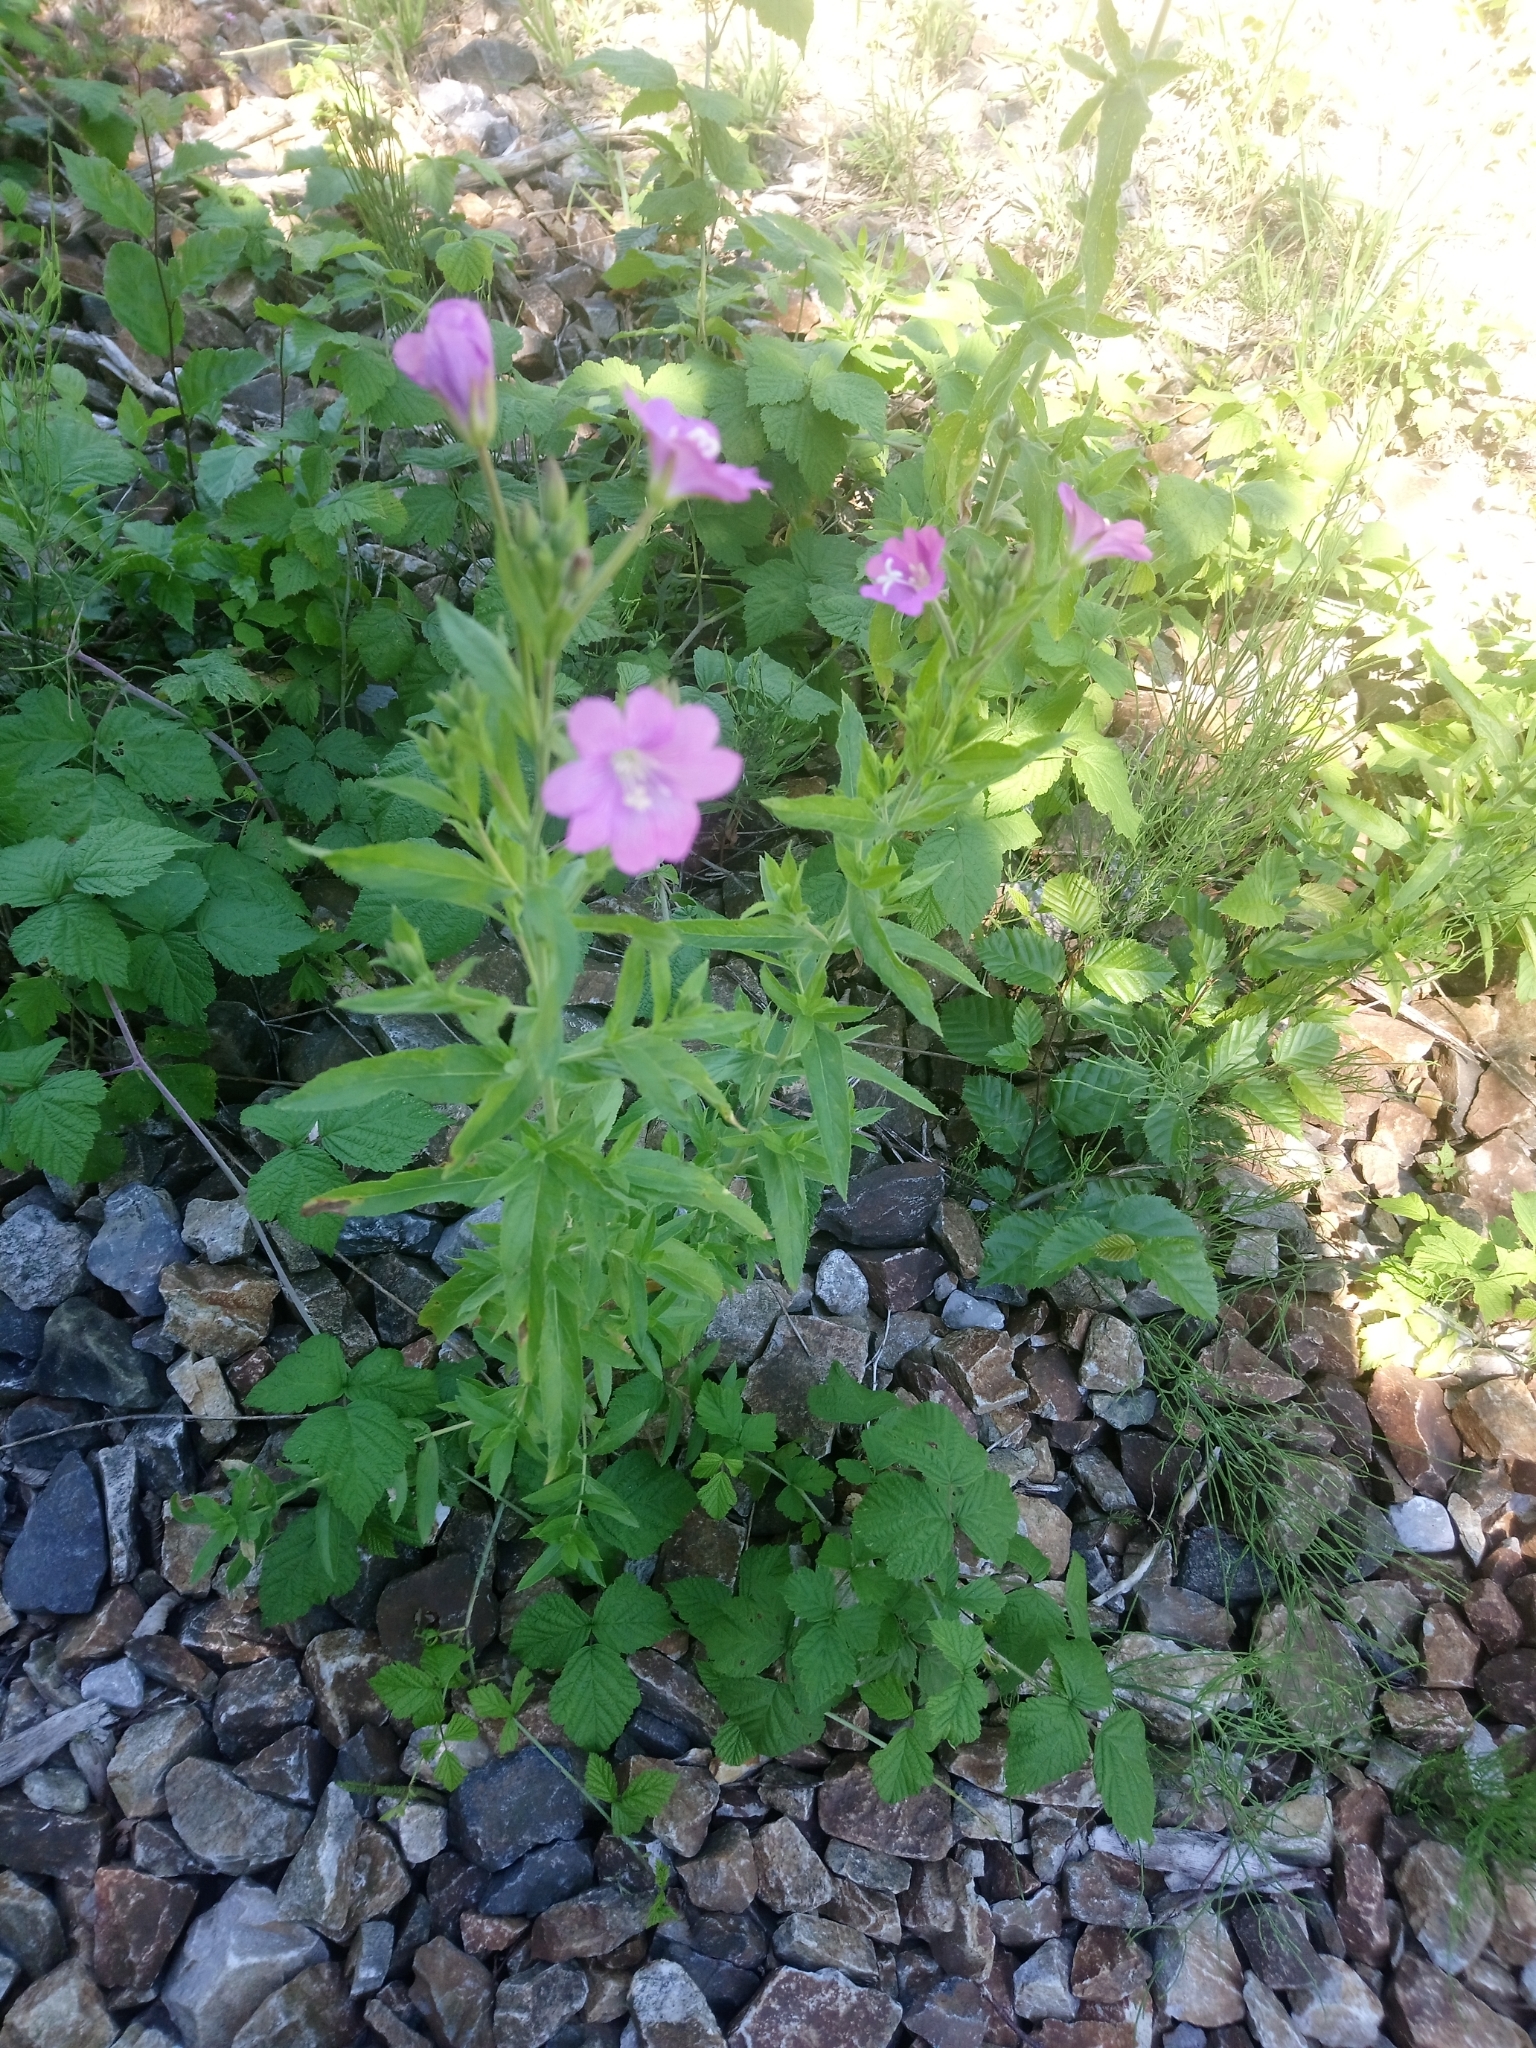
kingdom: Plantae
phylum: Tracheophyta
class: Magnoliopsida
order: Myrtales
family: Onagraceae
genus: Epilobium
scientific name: Epilobium hirsutum
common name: Great willowherb
